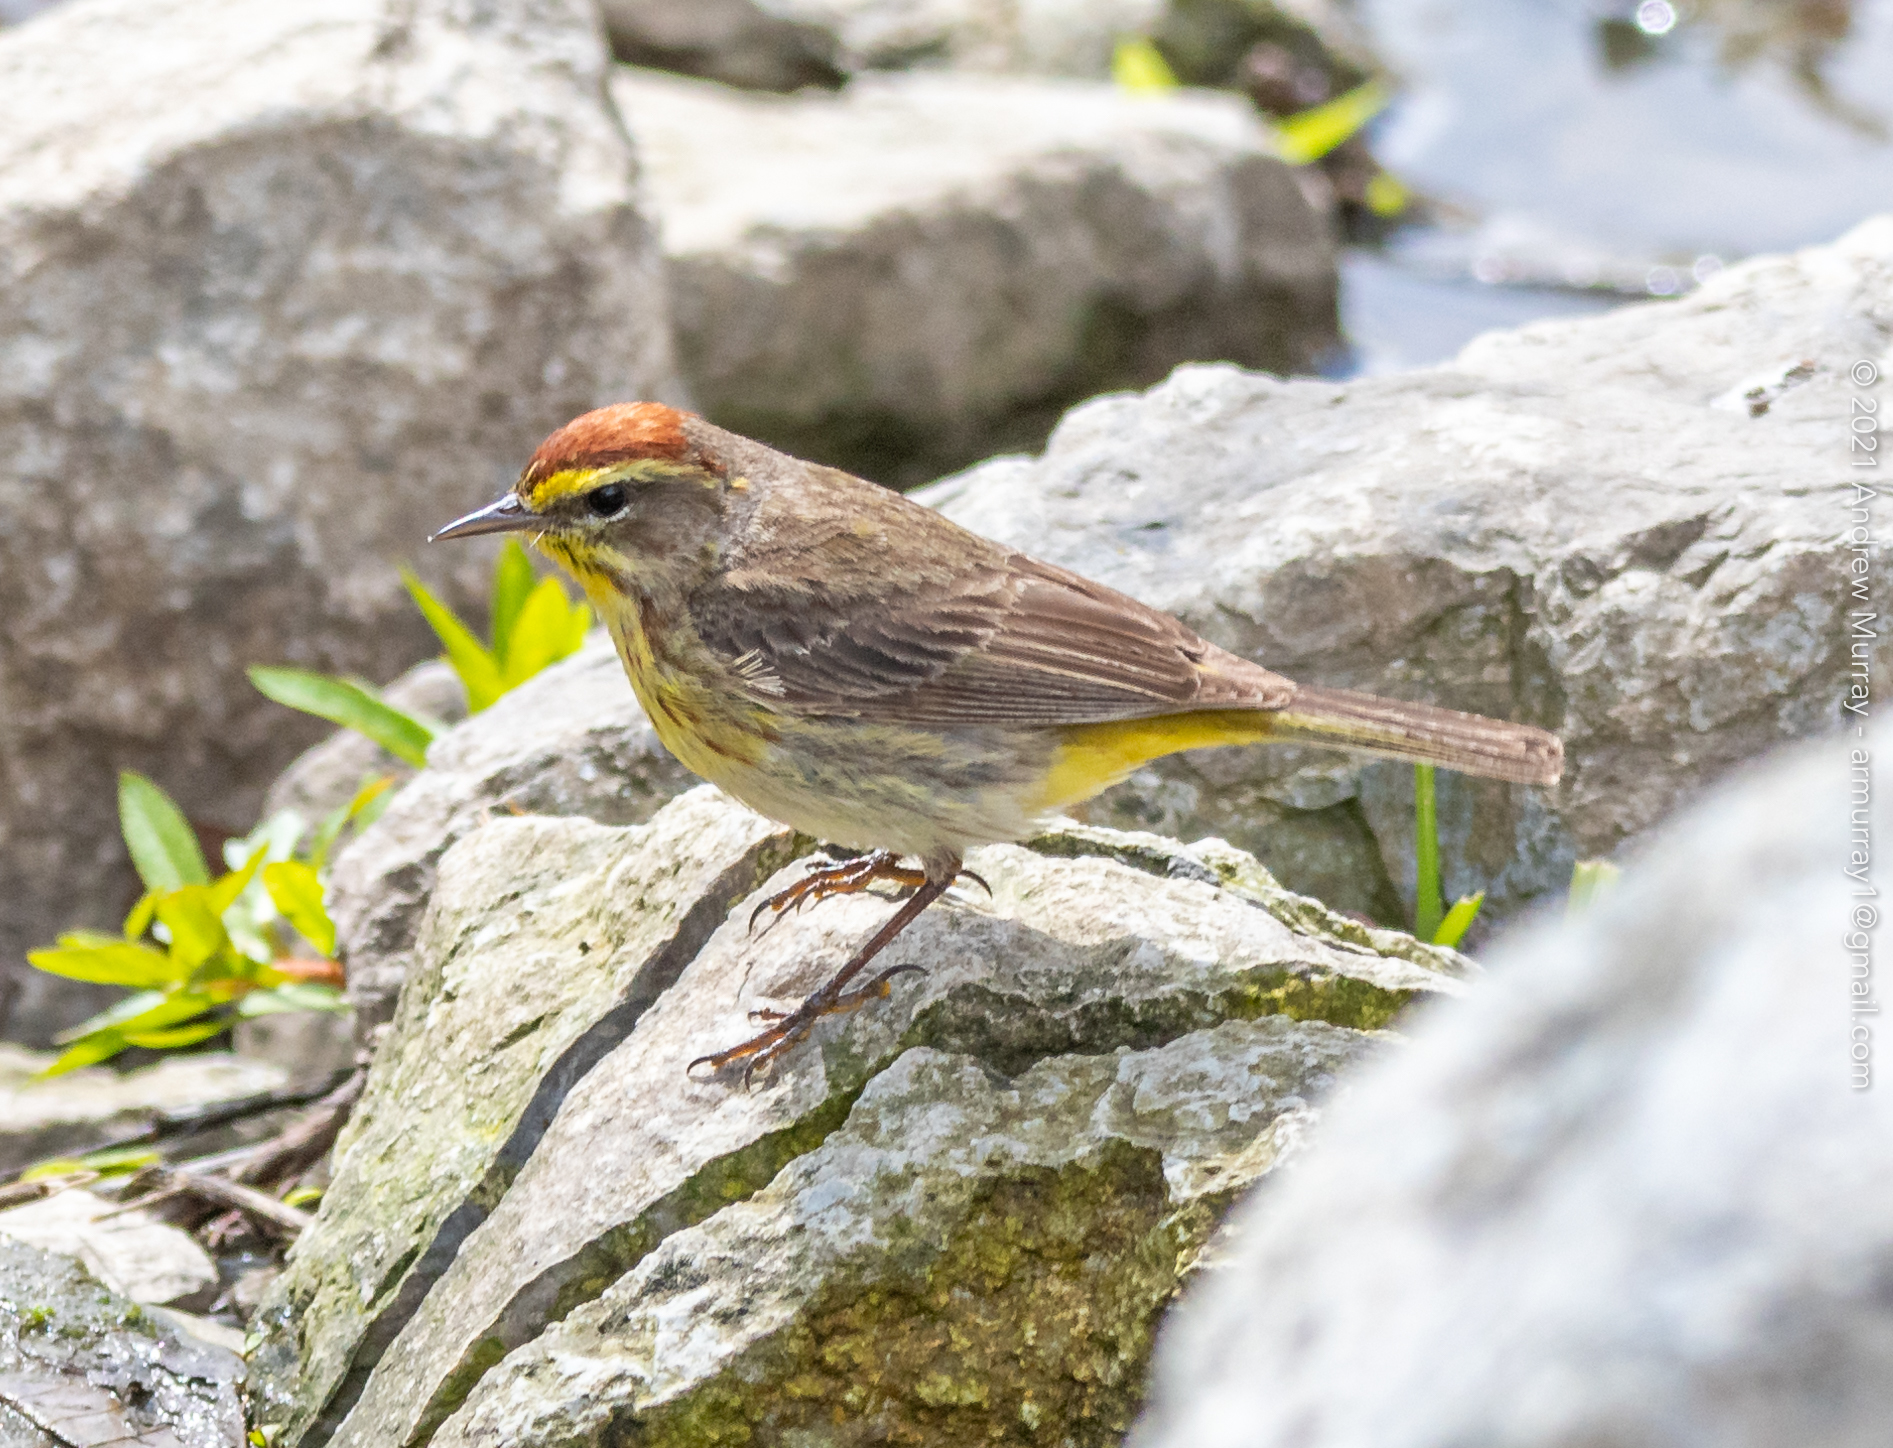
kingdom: Animalia
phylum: Chordata
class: Aves
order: Passeriformes
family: Parulidae
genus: Setophaga
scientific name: Setophaga palmarum
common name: Palm warbler
